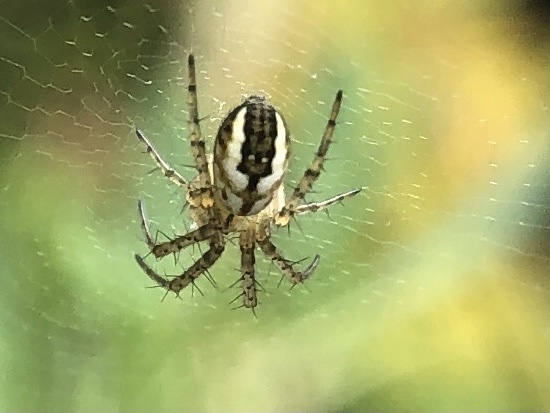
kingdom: Animalia
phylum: Arthropoda
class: Arachnida
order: Araneae
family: Araneidae
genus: Mangora
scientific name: Mangora acalypha
